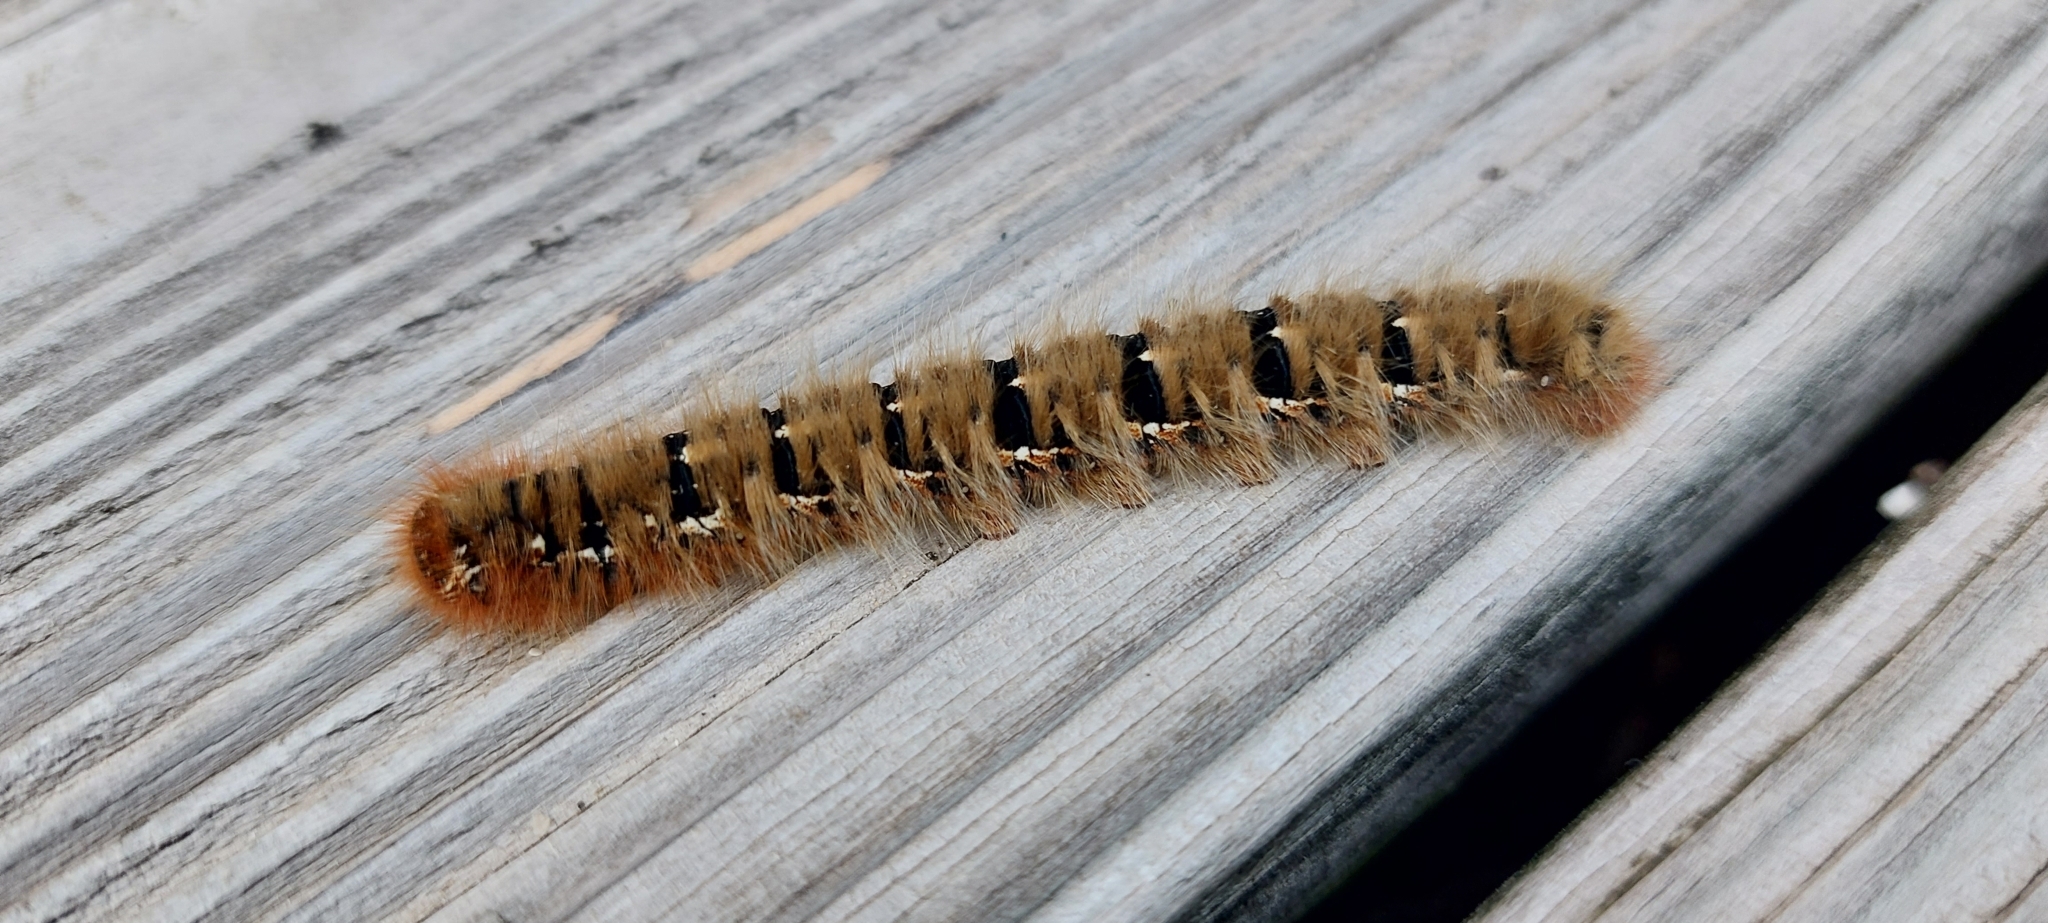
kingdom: Animalia
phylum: Arthropoda
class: Insecta
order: Lepidoptera
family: Lasiocampidae
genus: Lasiocampa
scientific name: Lasiocampa quercus
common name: Oak eggar
